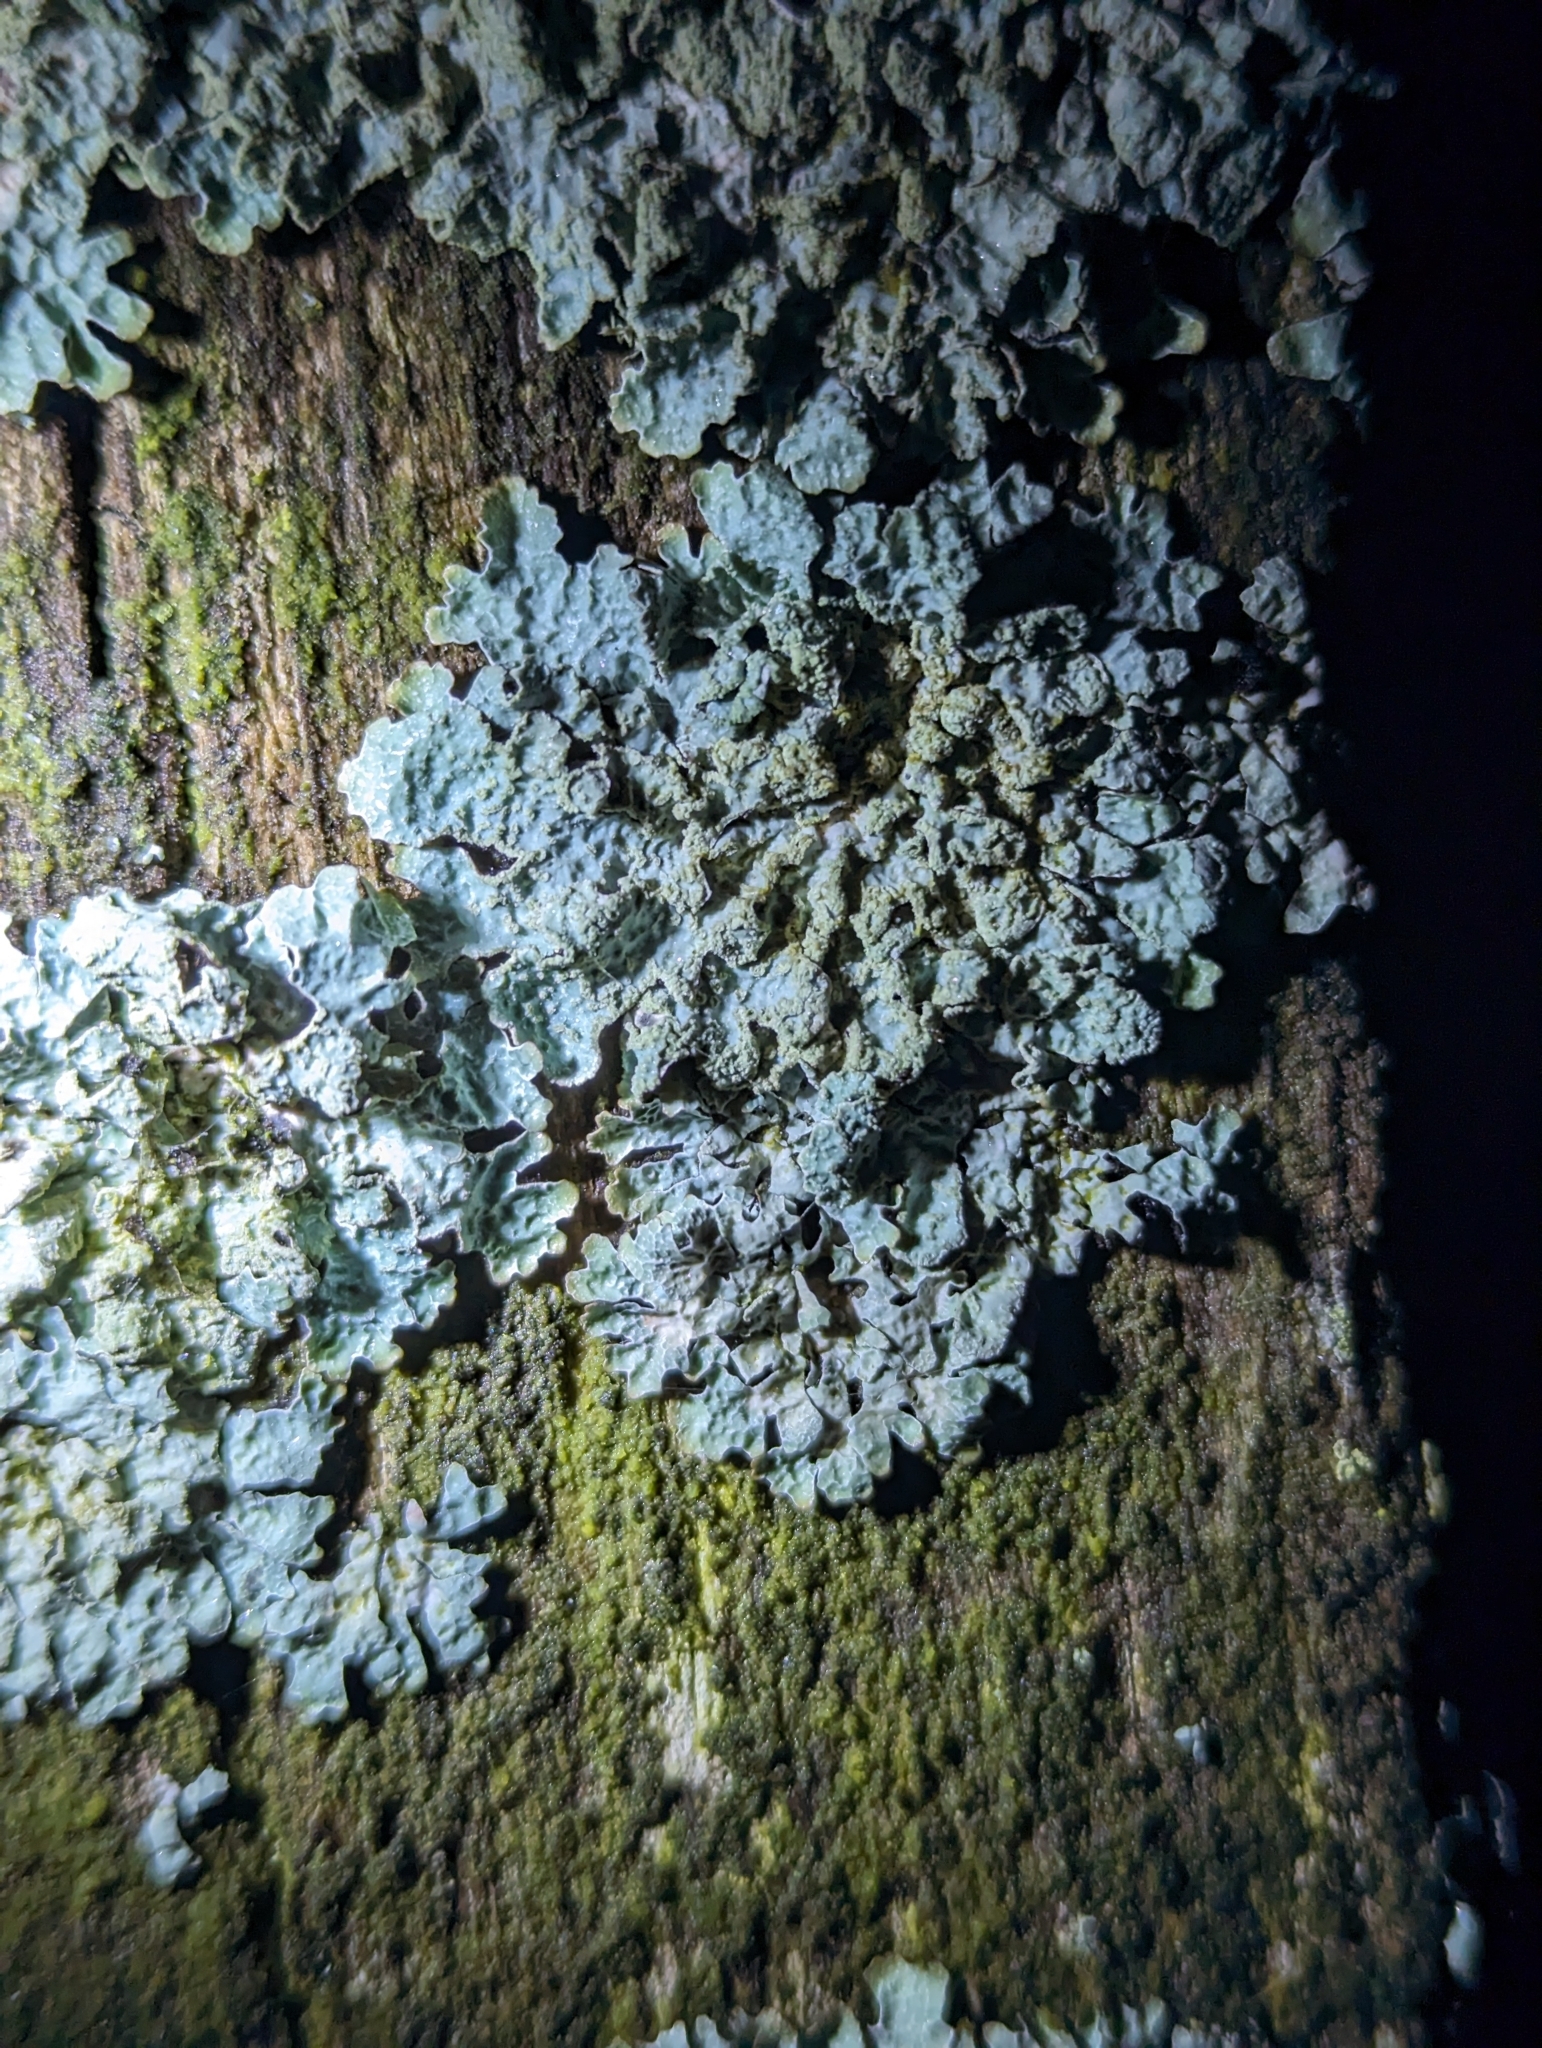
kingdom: Fungi
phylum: Ascomycota
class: Lecanoromycetes
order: Lecanorales
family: Parmeliaceae
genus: Parmelia
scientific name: Parmelia sulcata
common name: Netted shield lichen
